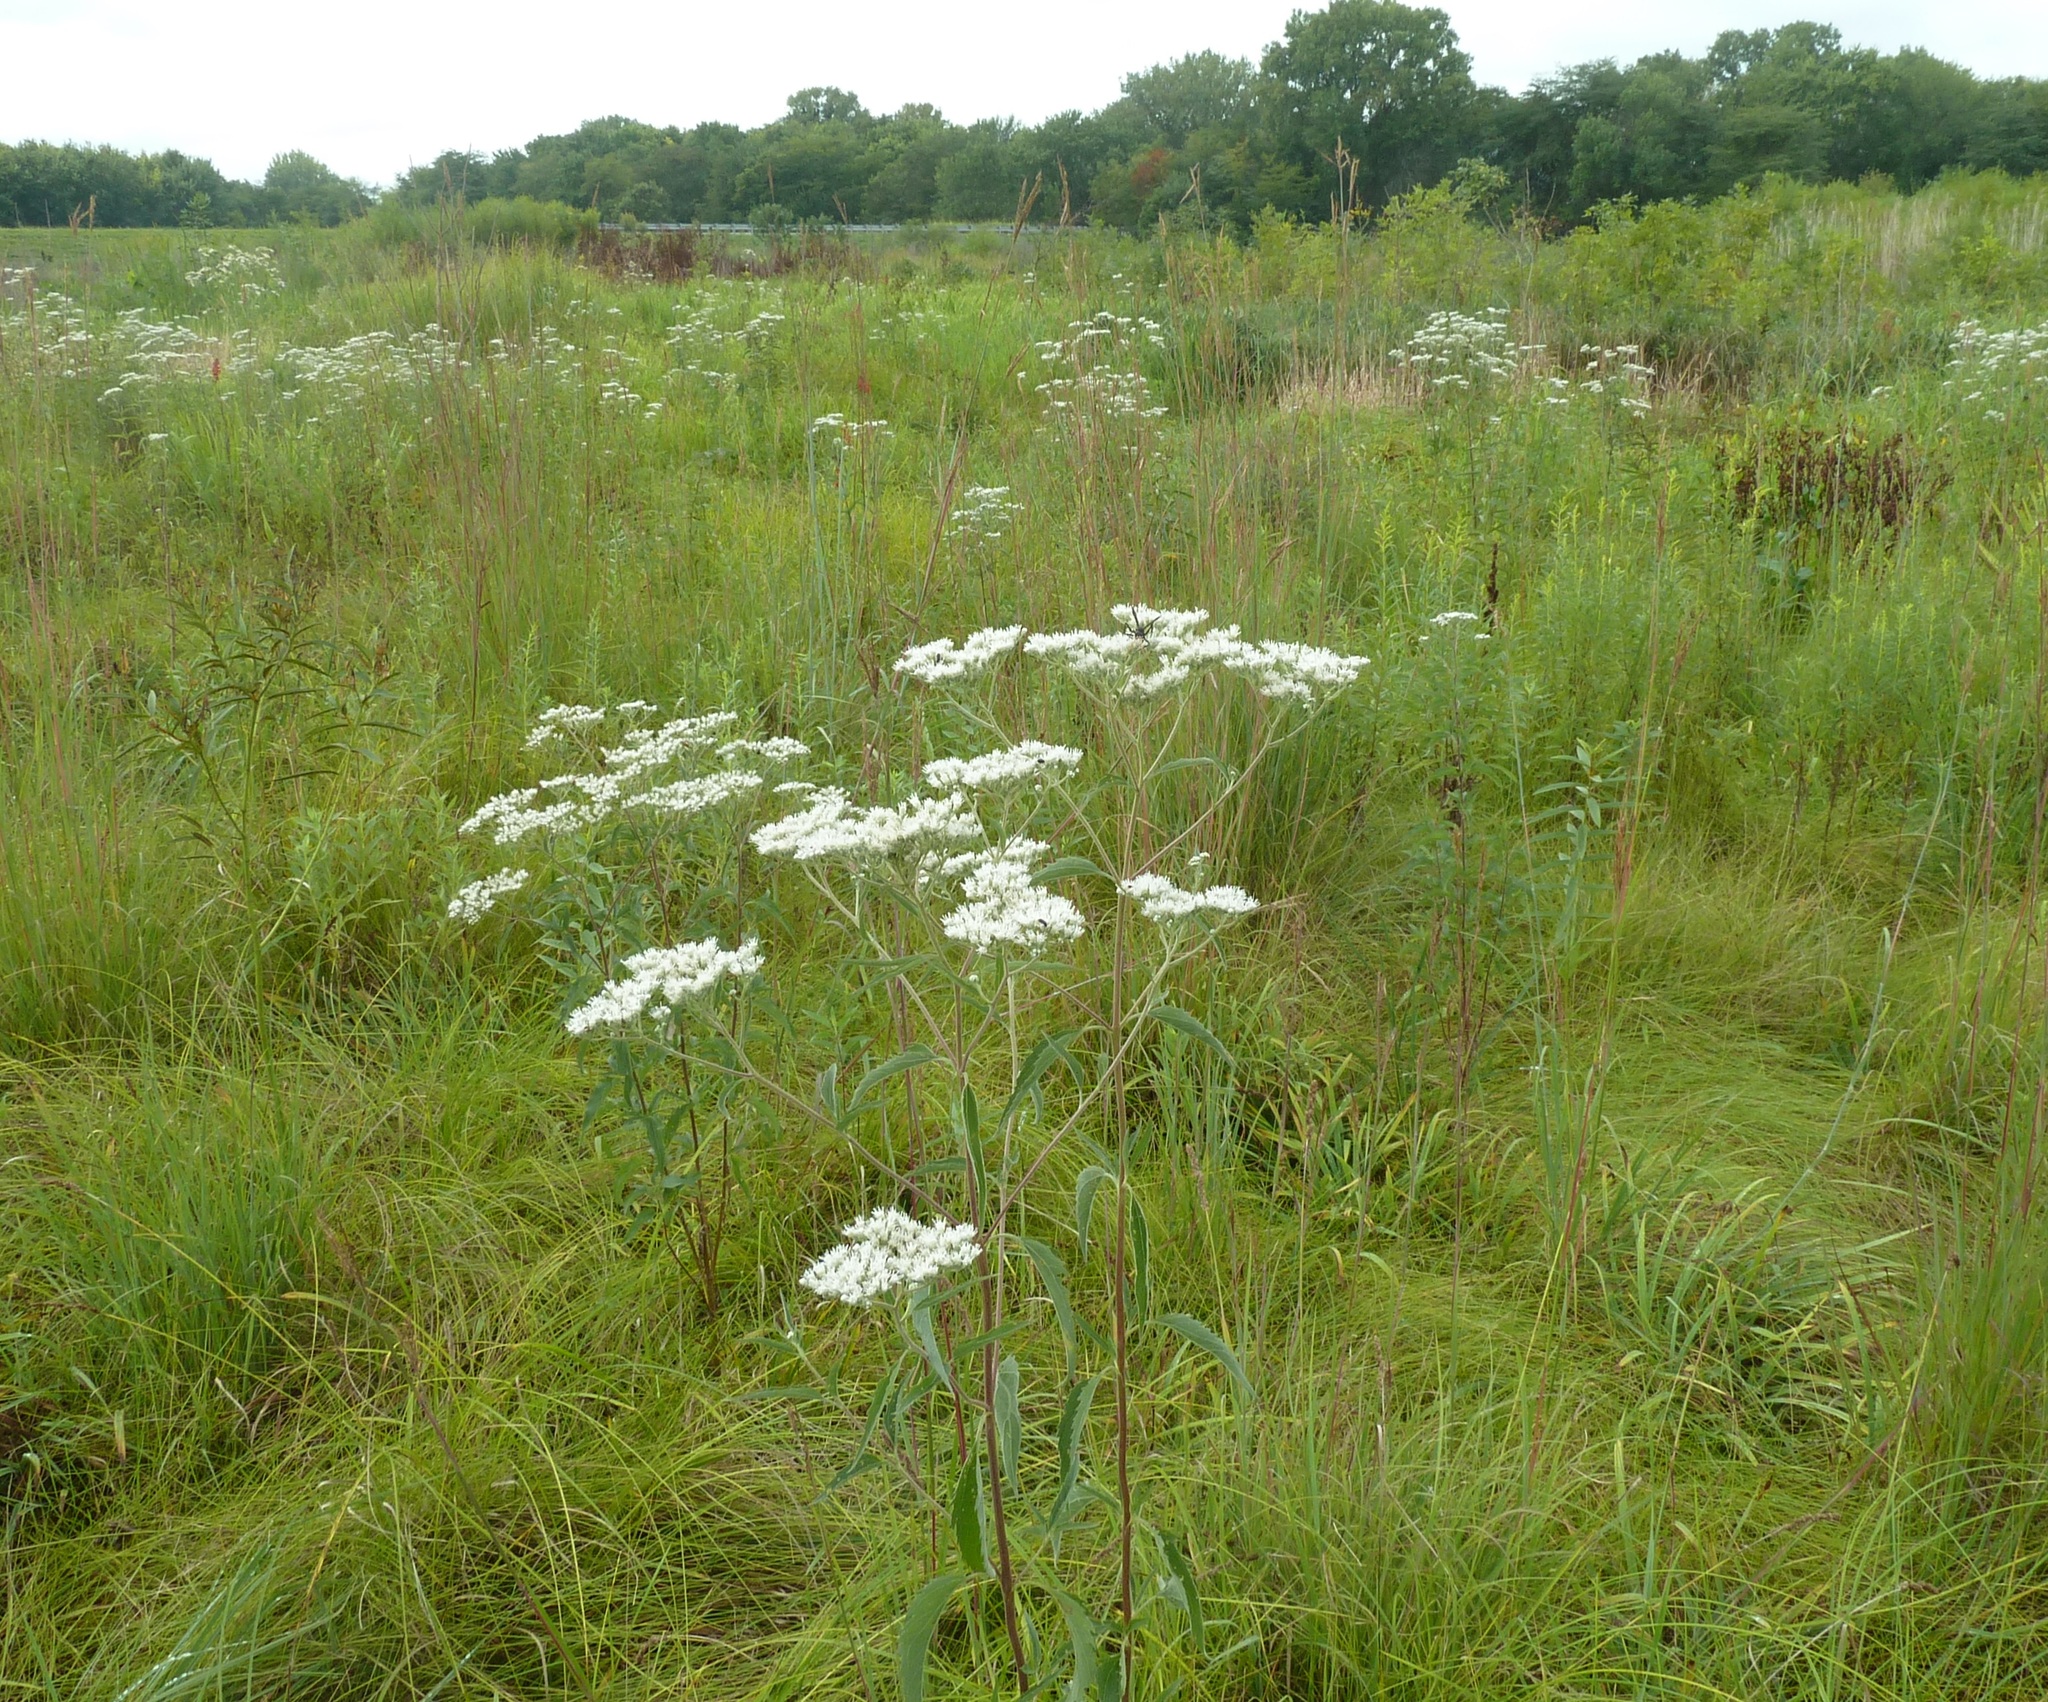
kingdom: Plantae
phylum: Tracheophyta
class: Magnoliopsida
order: Asterales
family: Asteraceae
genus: Eupatorium
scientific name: Eupatorium serotinum
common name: Late boneset
